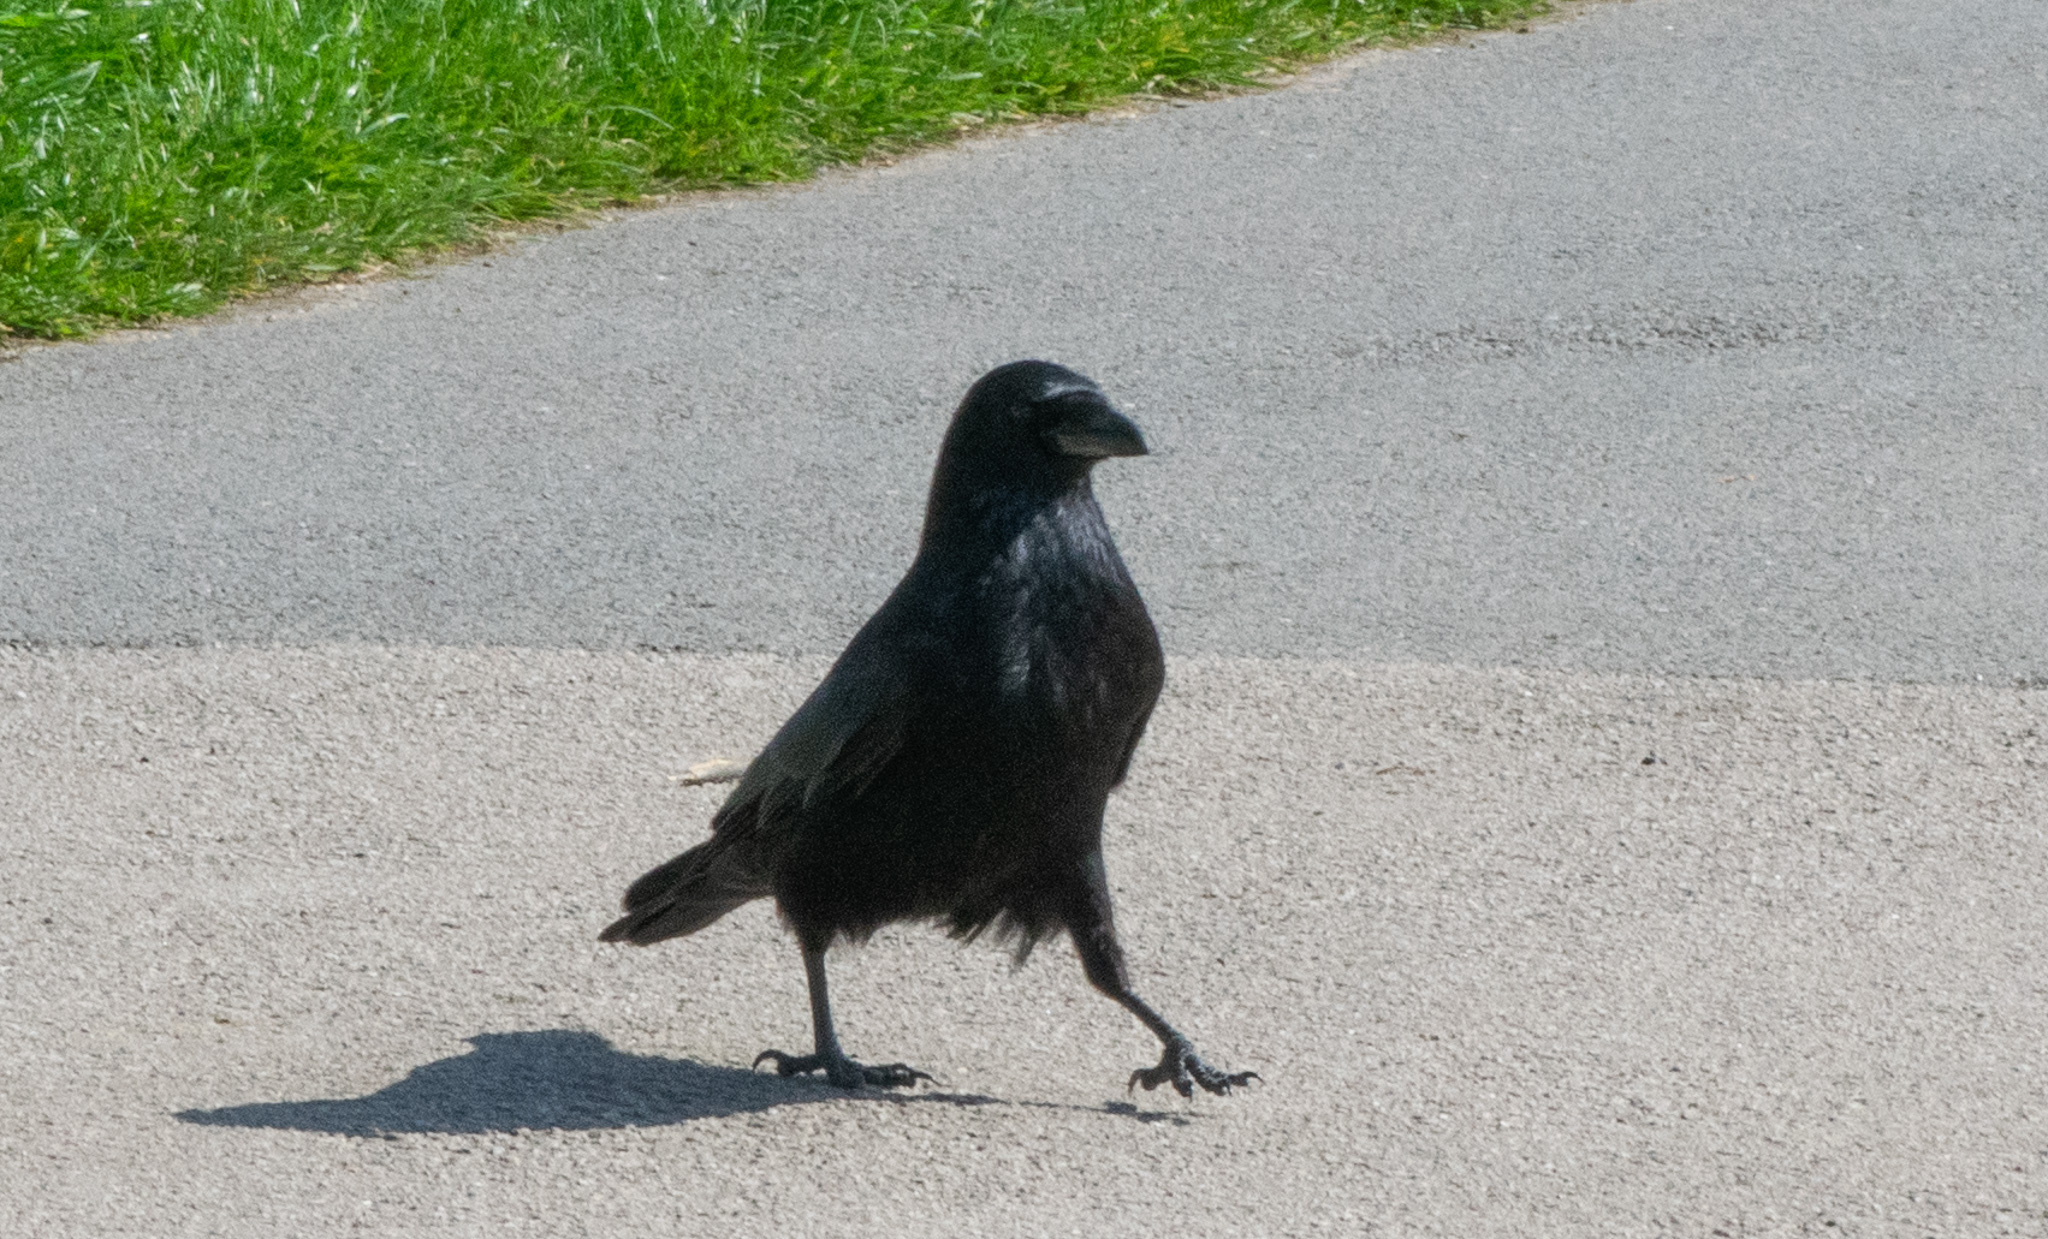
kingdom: Animalia
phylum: Chordata
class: Aves
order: Passeriformes
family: Corvidae
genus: Corvus
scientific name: Corvus corone
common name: Carrion crow
